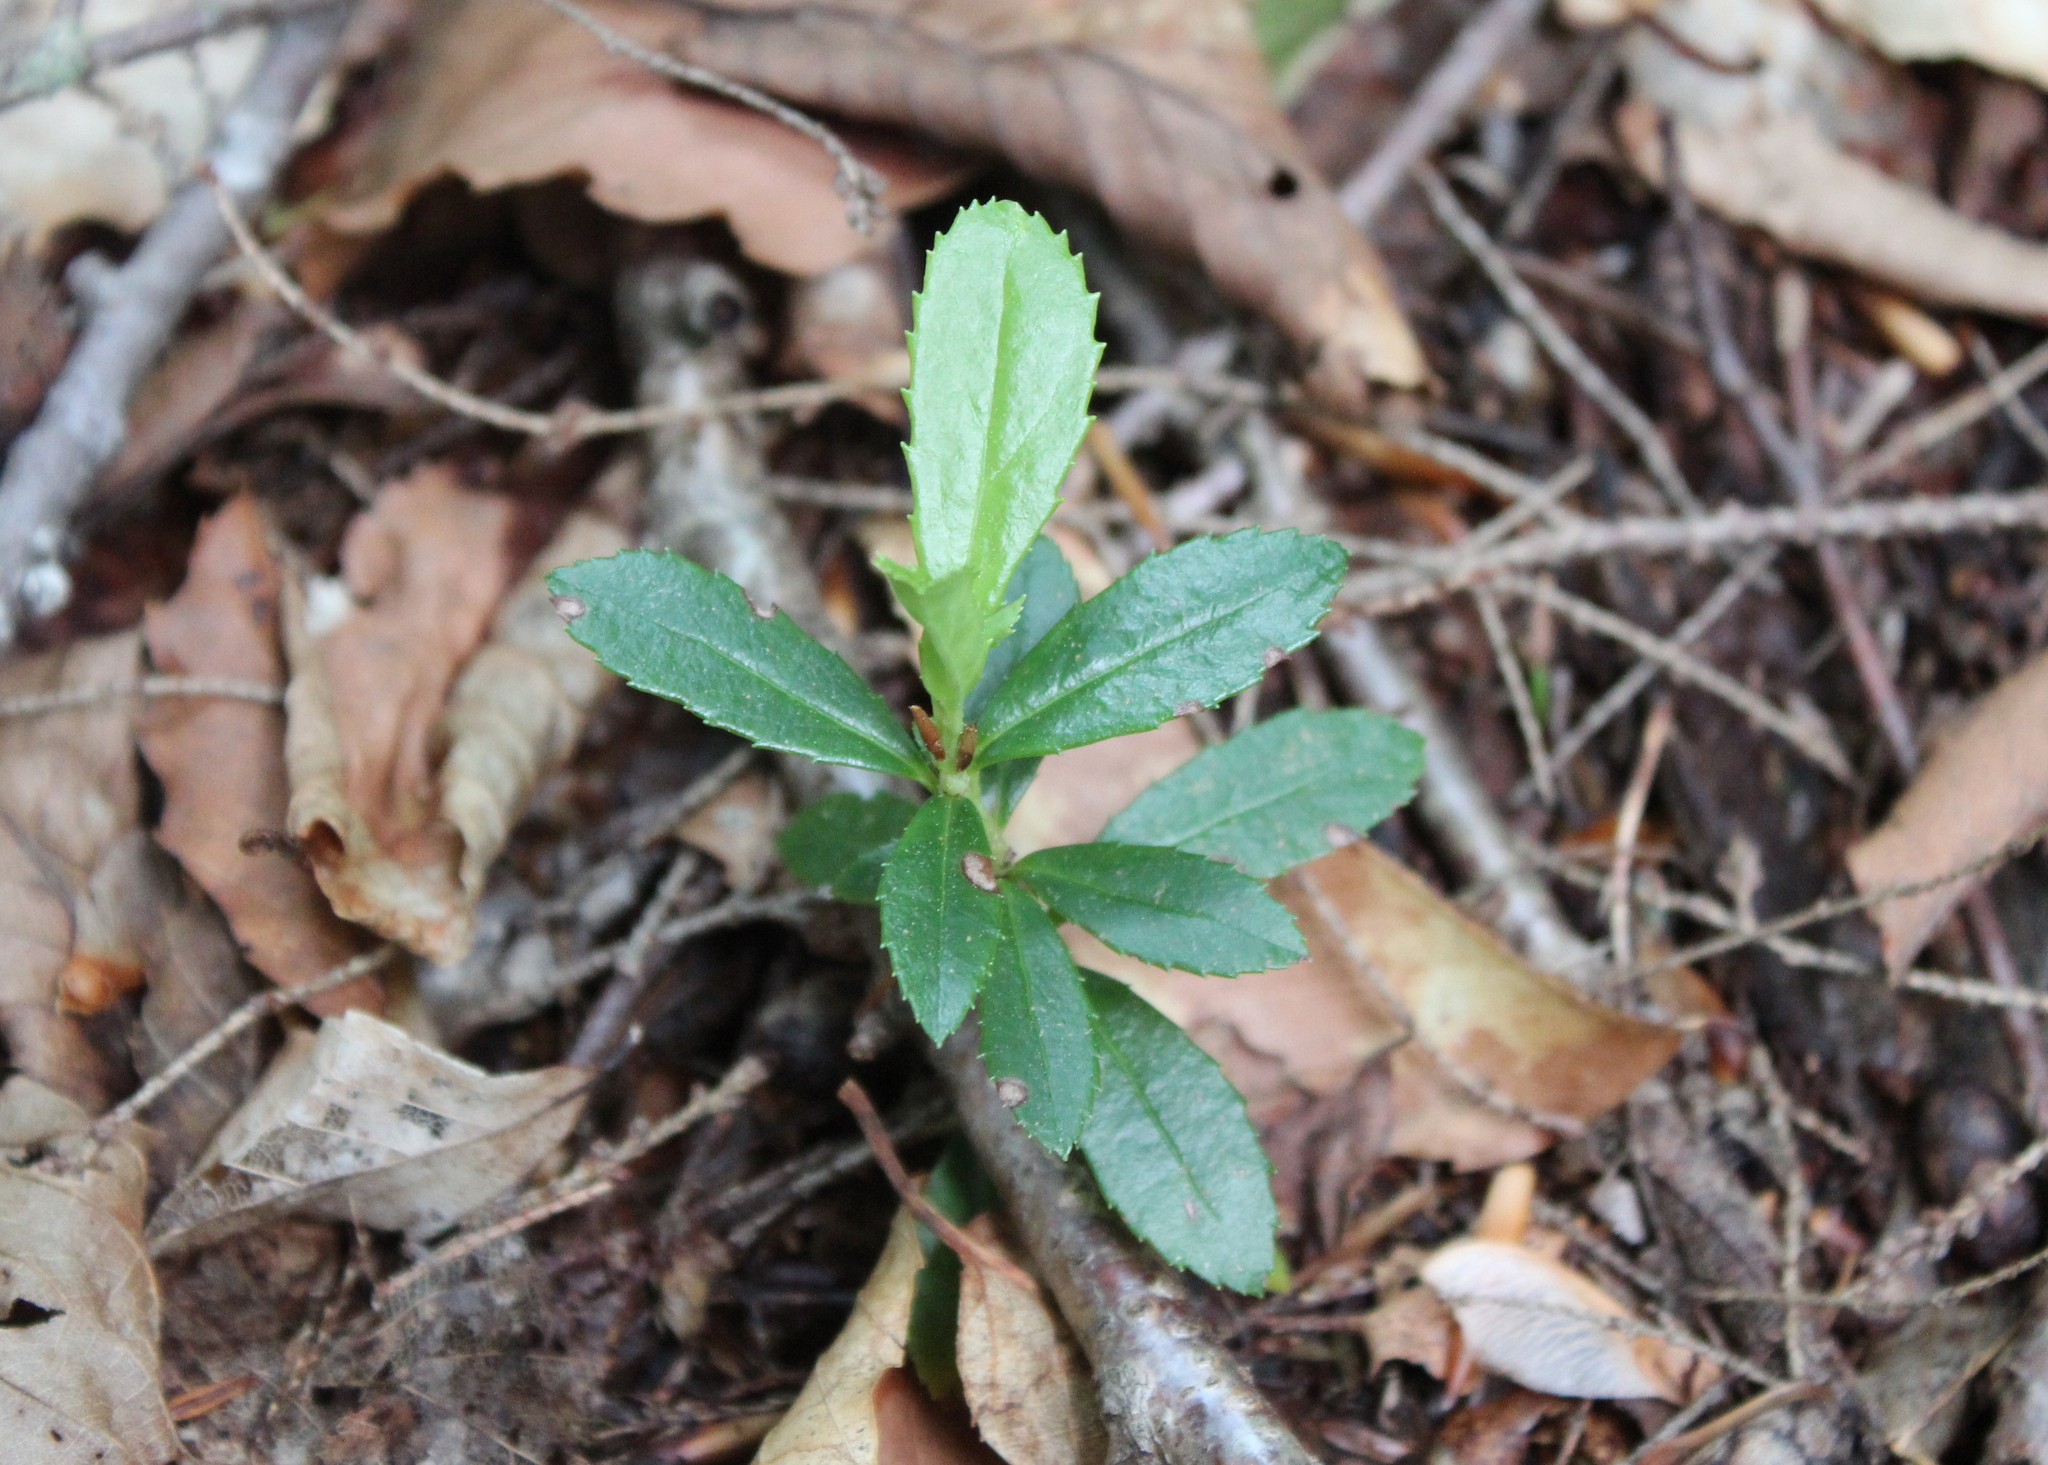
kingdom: Plantae
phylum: Tracheophyta
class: Magnoliopsida
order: Ericales
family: Ericaceae
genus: Chimaphila
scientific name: Chimaphila umbellata
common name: Pipsissewa
